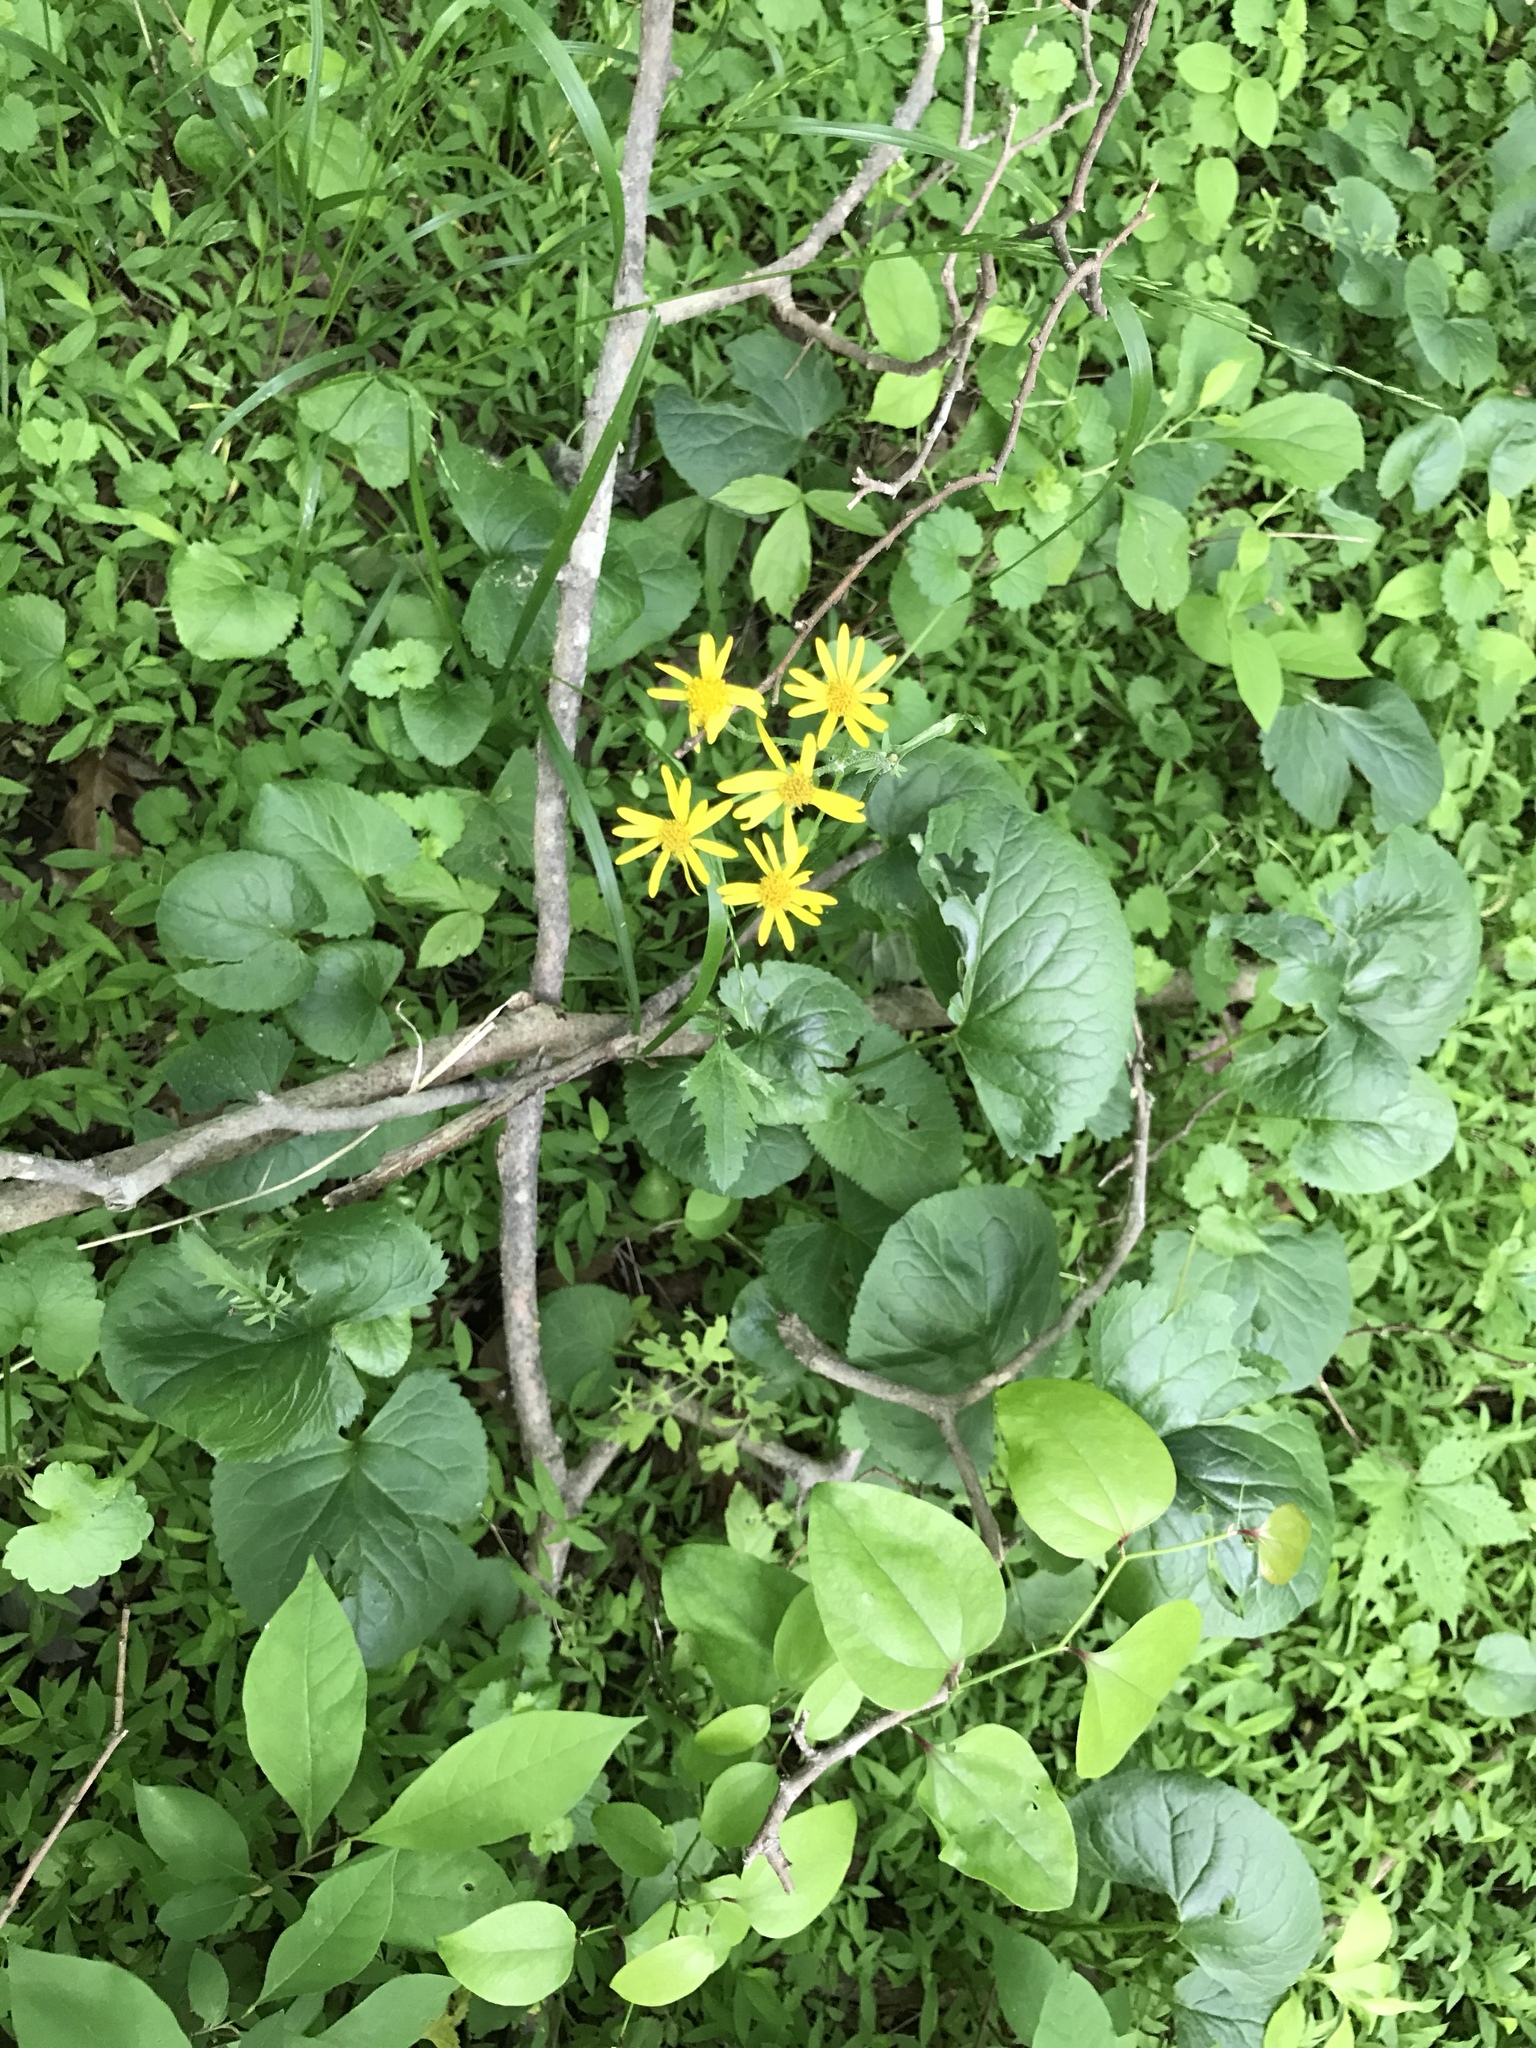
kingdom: Plantae
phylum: Tracheophyta
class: Magnoliopsida
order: Asterales
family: Asteraceae
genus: Packera
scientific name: Packera aurea
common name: Golden groundsel
